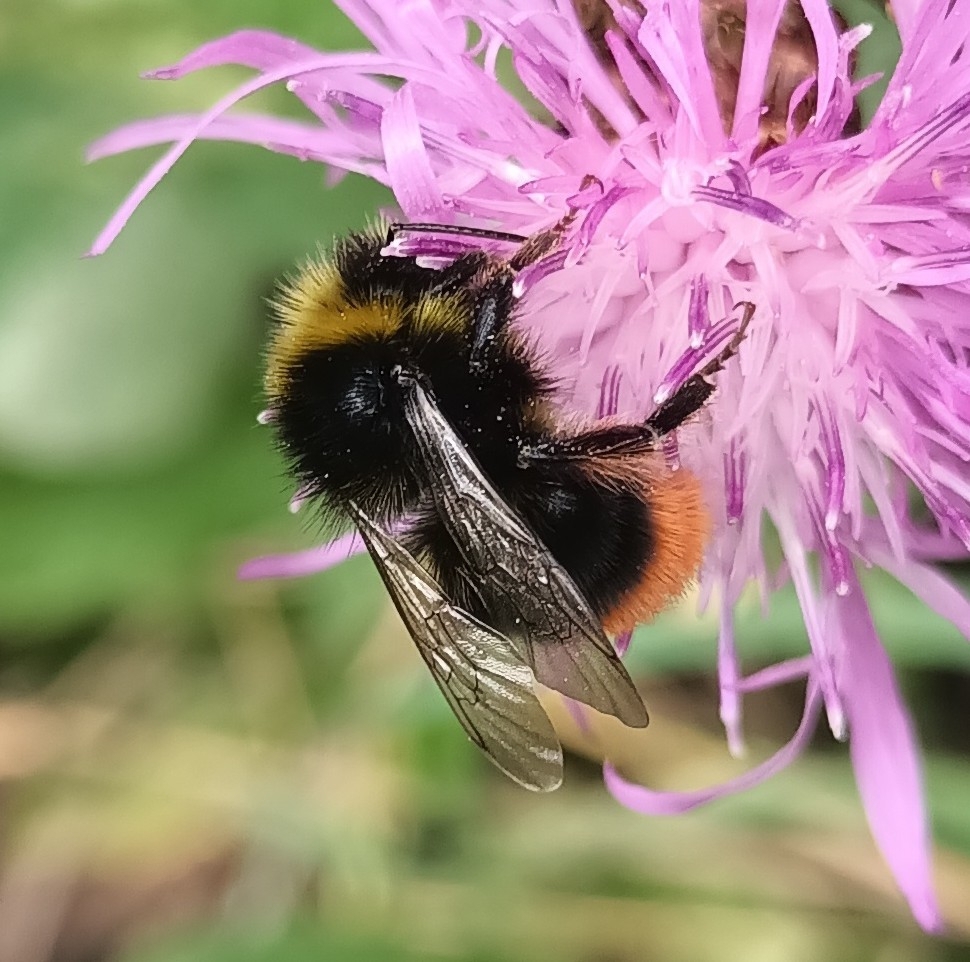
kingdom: Animalia
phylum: Arthropoda
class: Insecta
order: Hymenoptera
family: Apidae
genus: Bombus
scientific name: Bombus lapidarius
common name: Large red-tailed humble-bee
